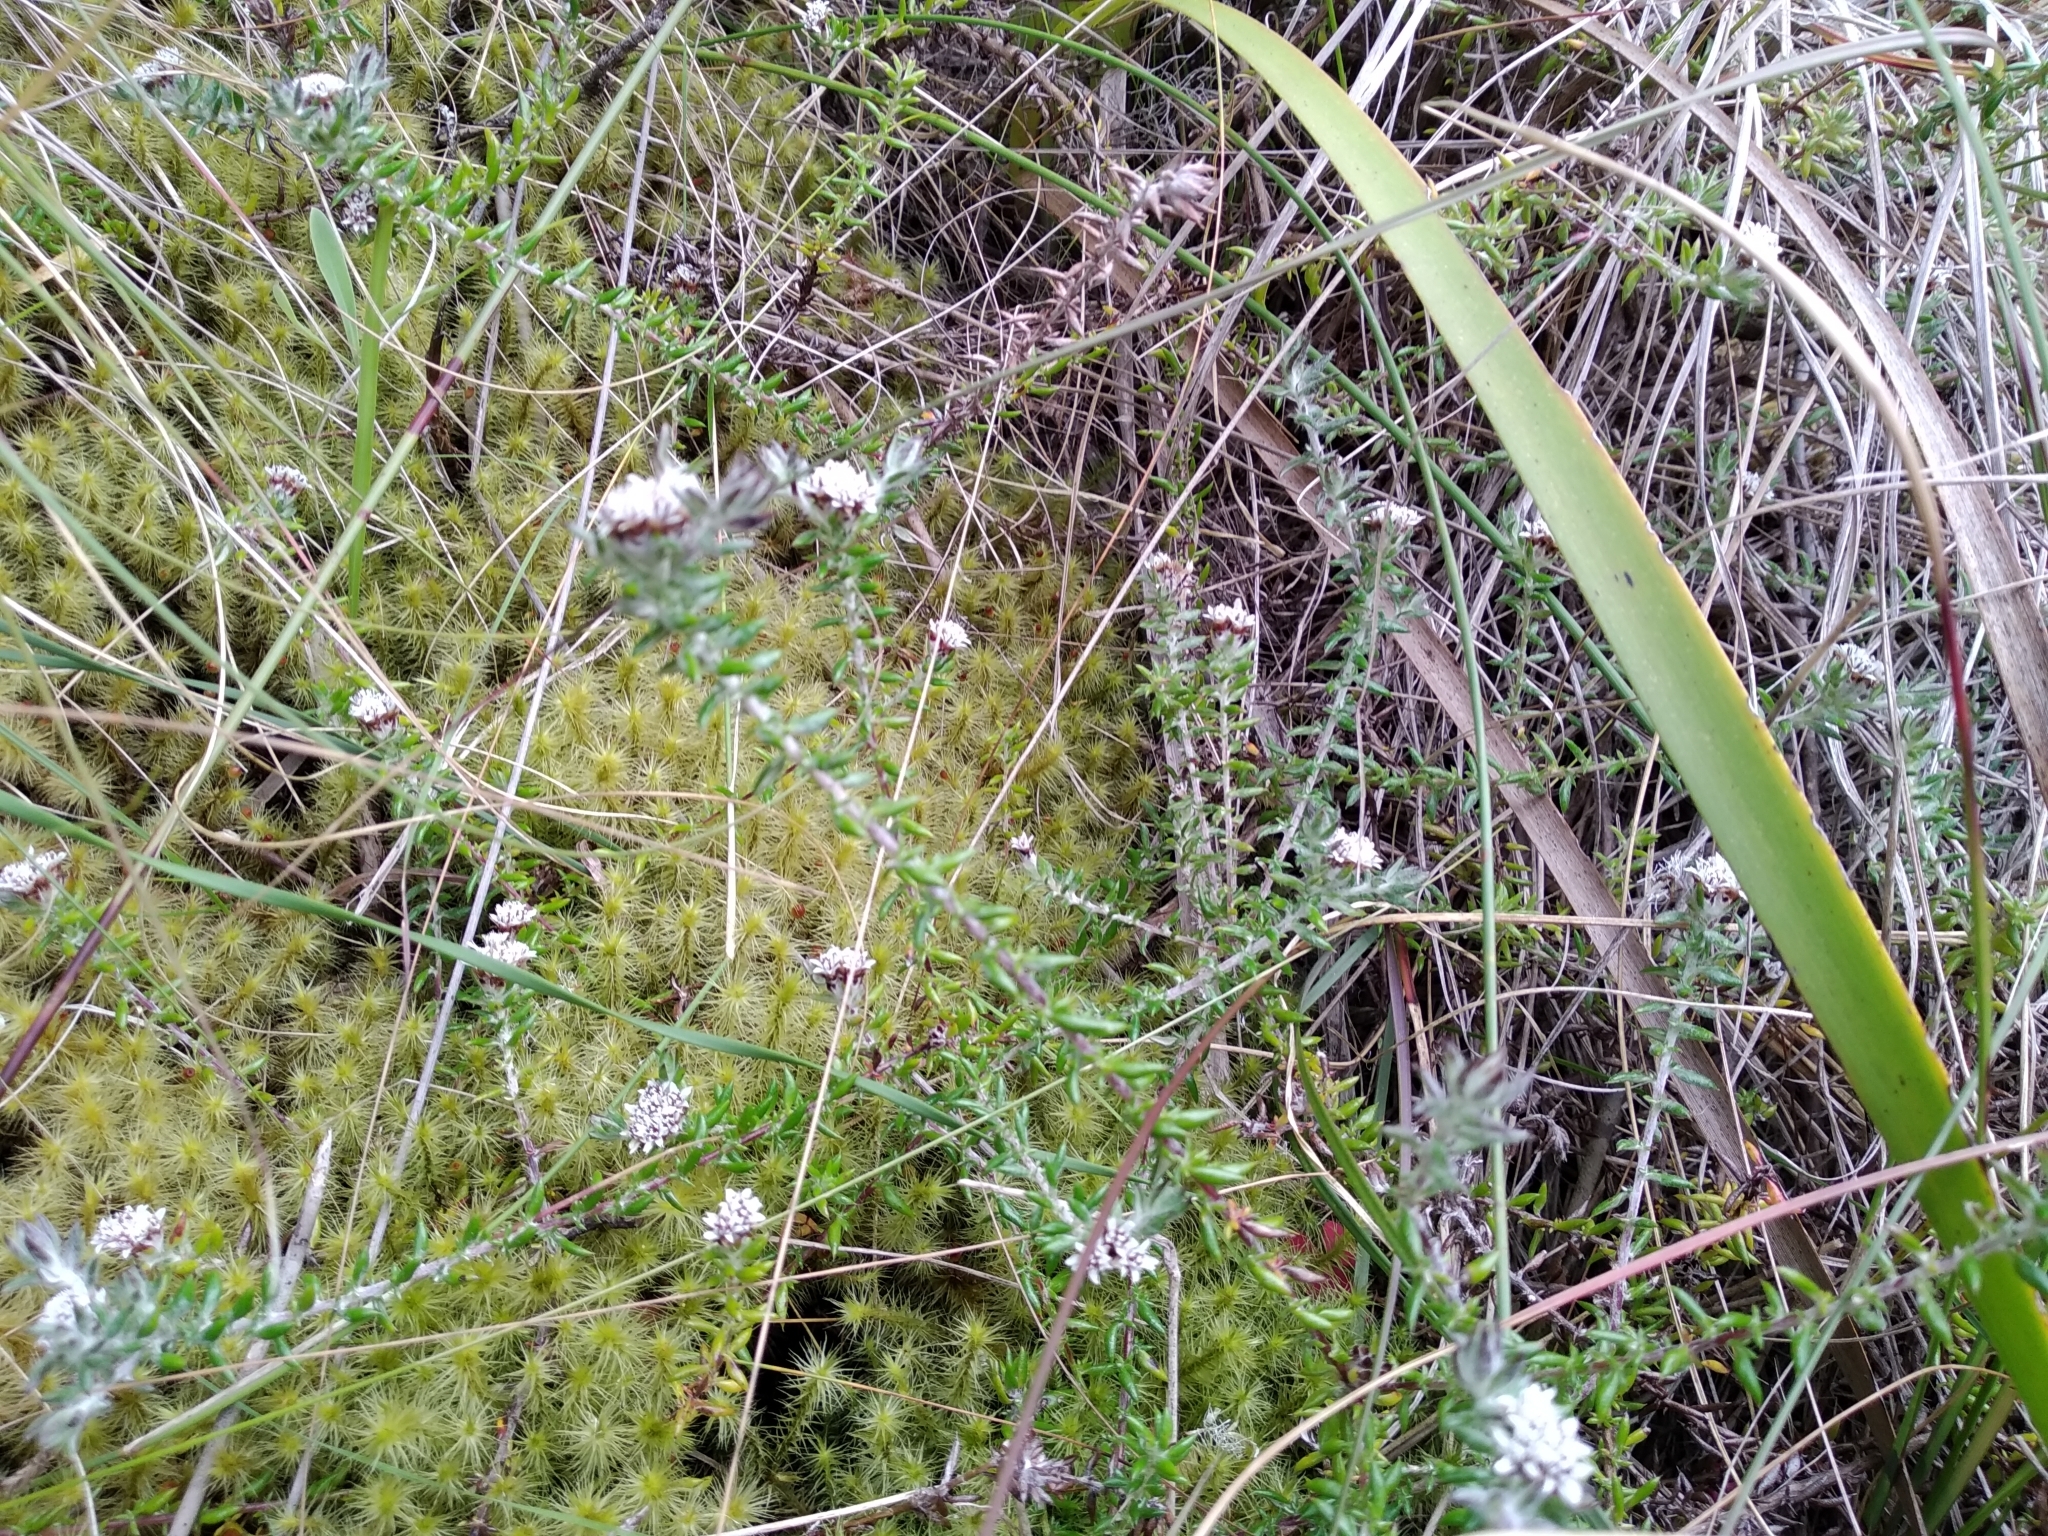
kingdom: Plantae
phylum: Tracheophyta
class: Magnoliopsida
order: Asterales
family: Asteraceae
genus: Metalasia
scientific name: Metalasia divergens
